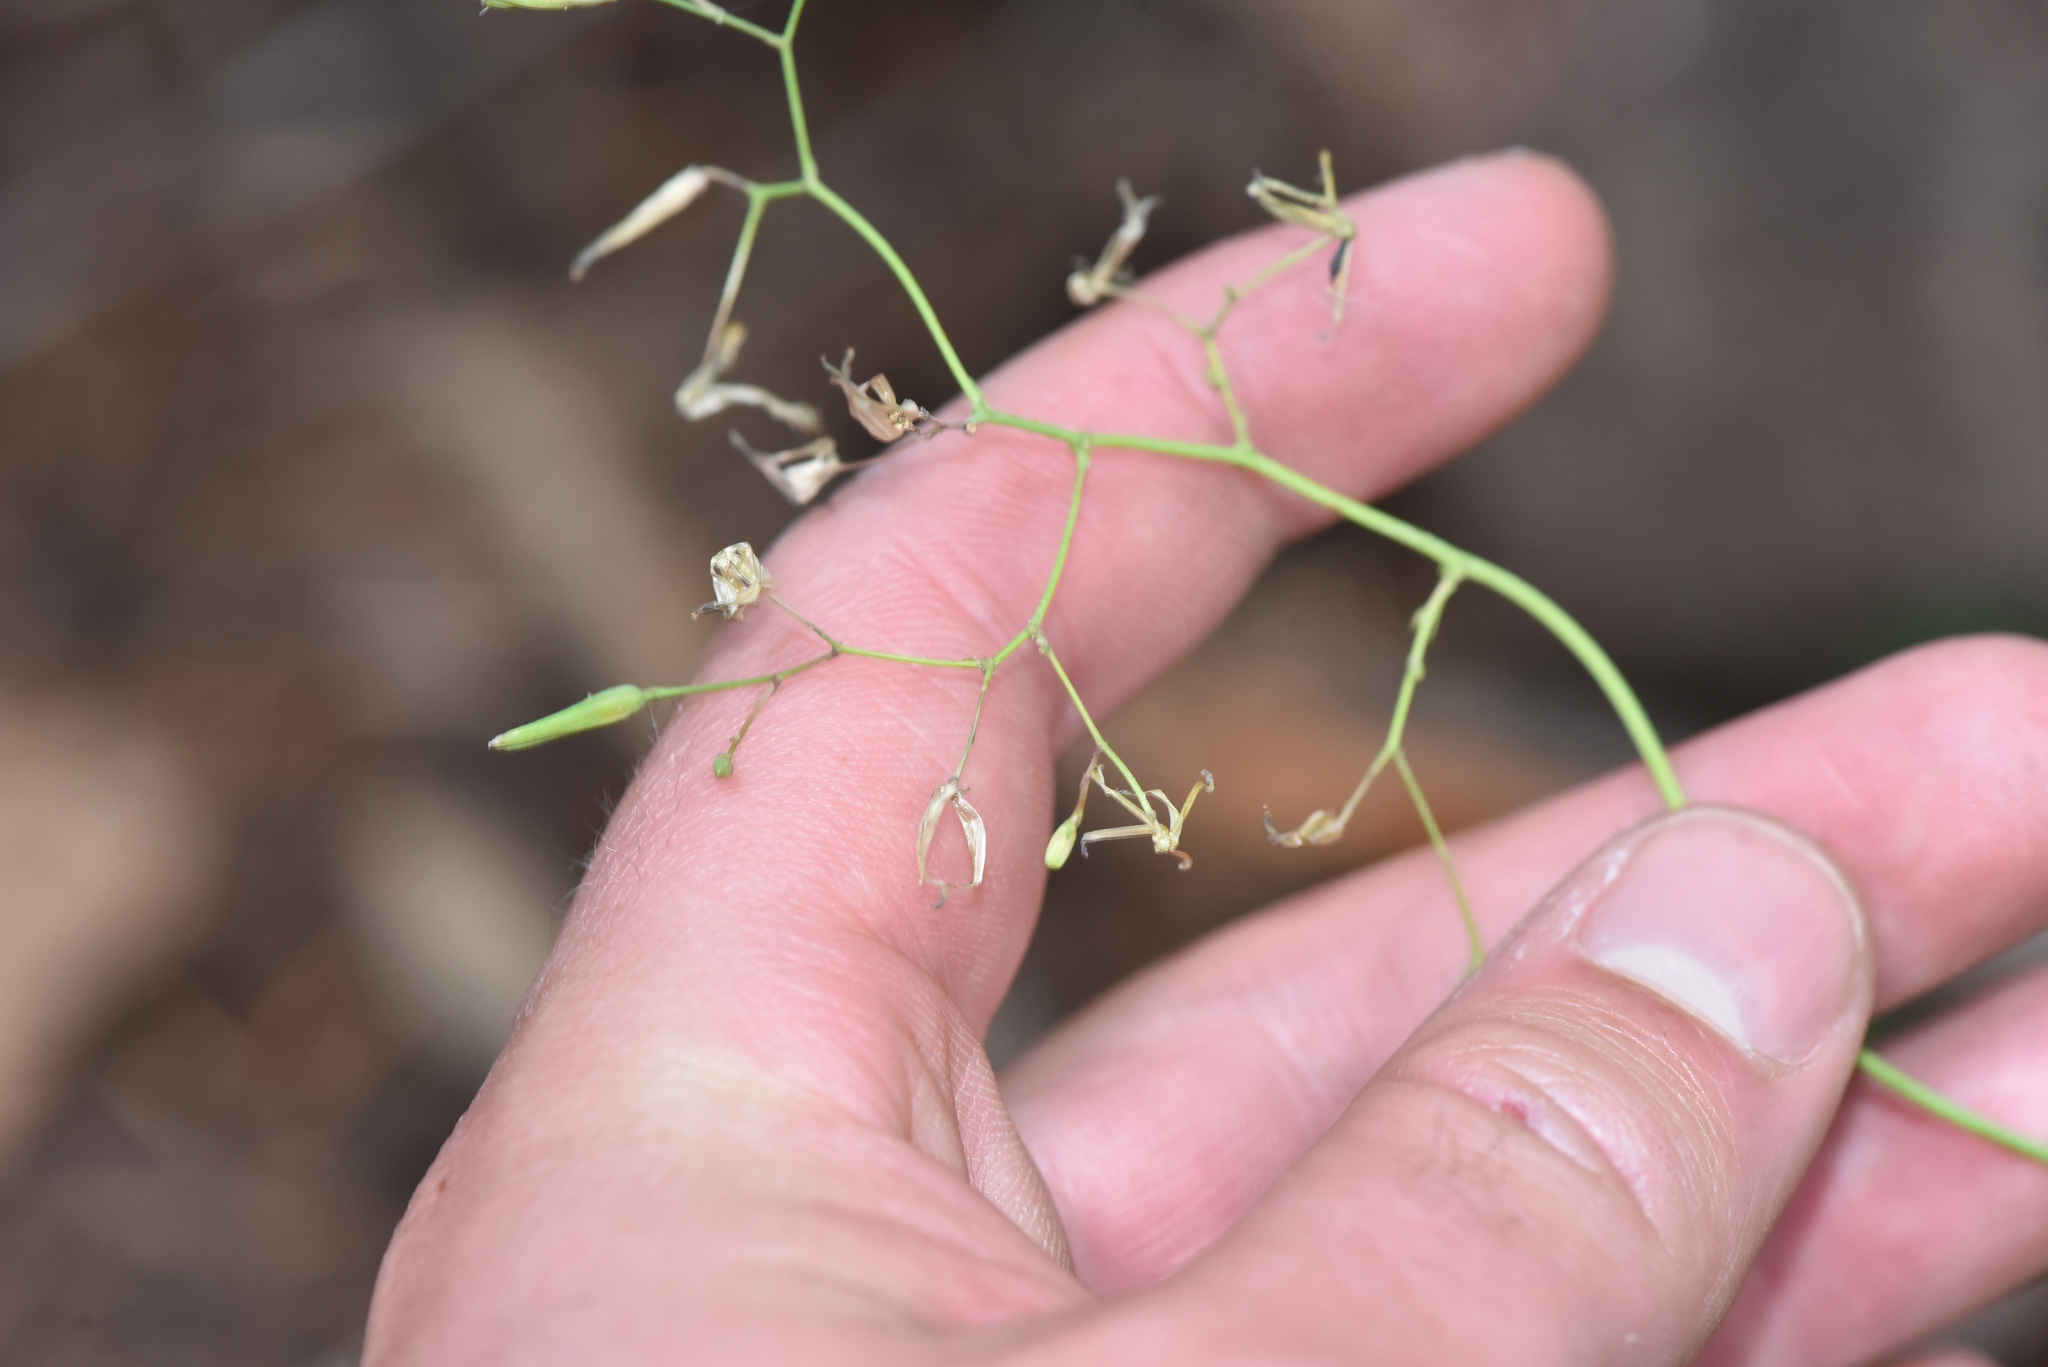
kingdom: Plantae
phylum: Tracheophyta
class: Magnoliopsida
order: Asterales
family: Asteraceae
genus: Mycelis
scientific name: Mycelis muralis
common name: Wall lettuce
